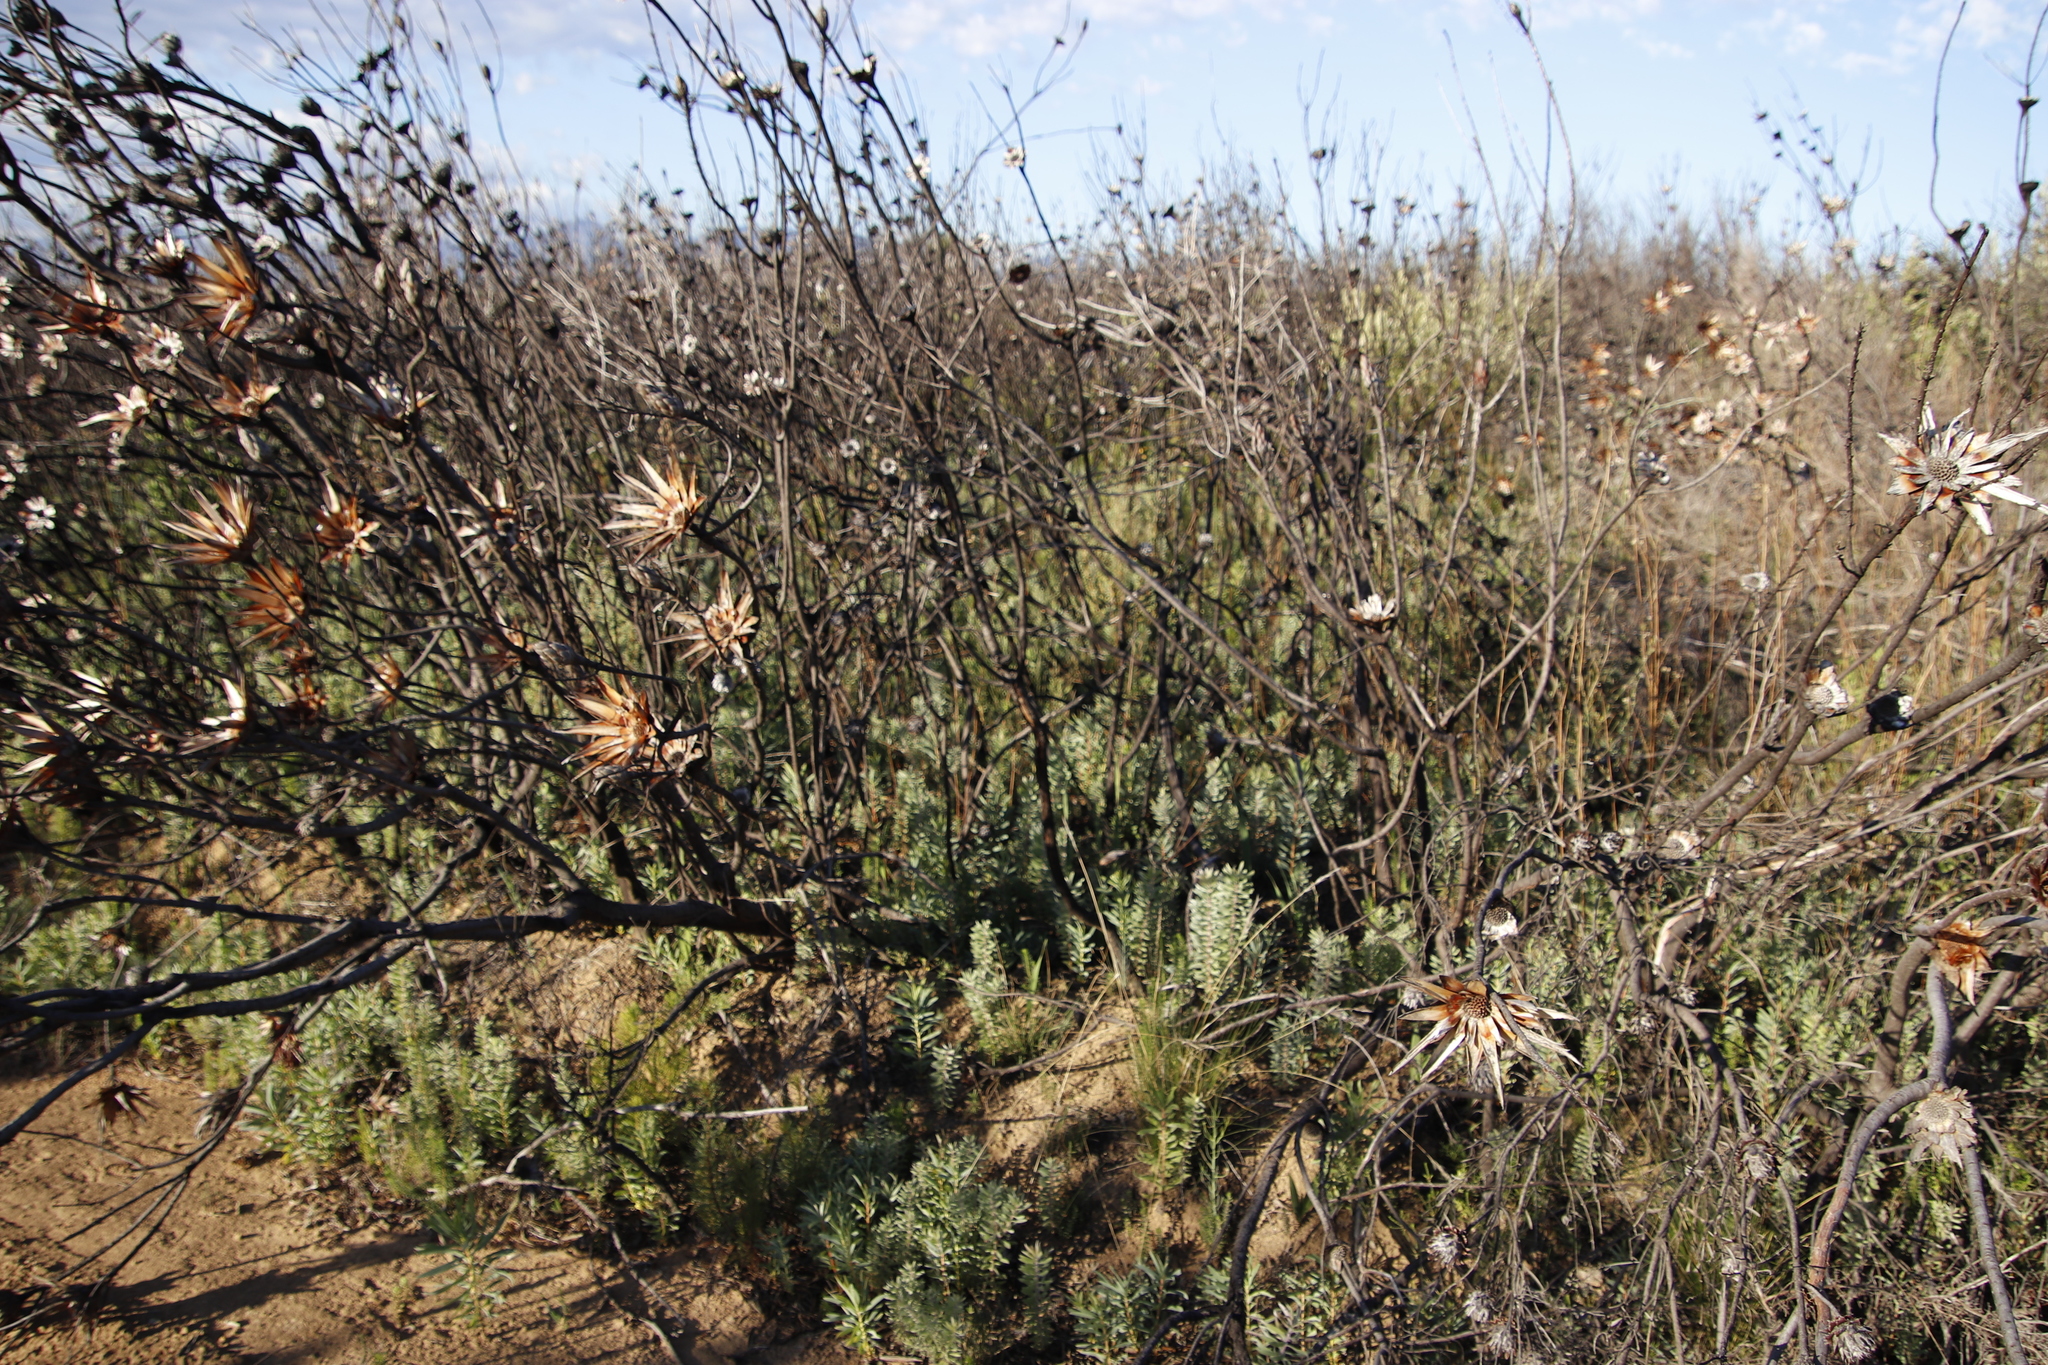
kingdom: Plantae
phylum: Tracheophyta
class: Magnoliopsida
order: Proteales
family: Proteaceae
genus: Leucadendron
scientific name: Leucadendron rubrum
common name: Spinning top
